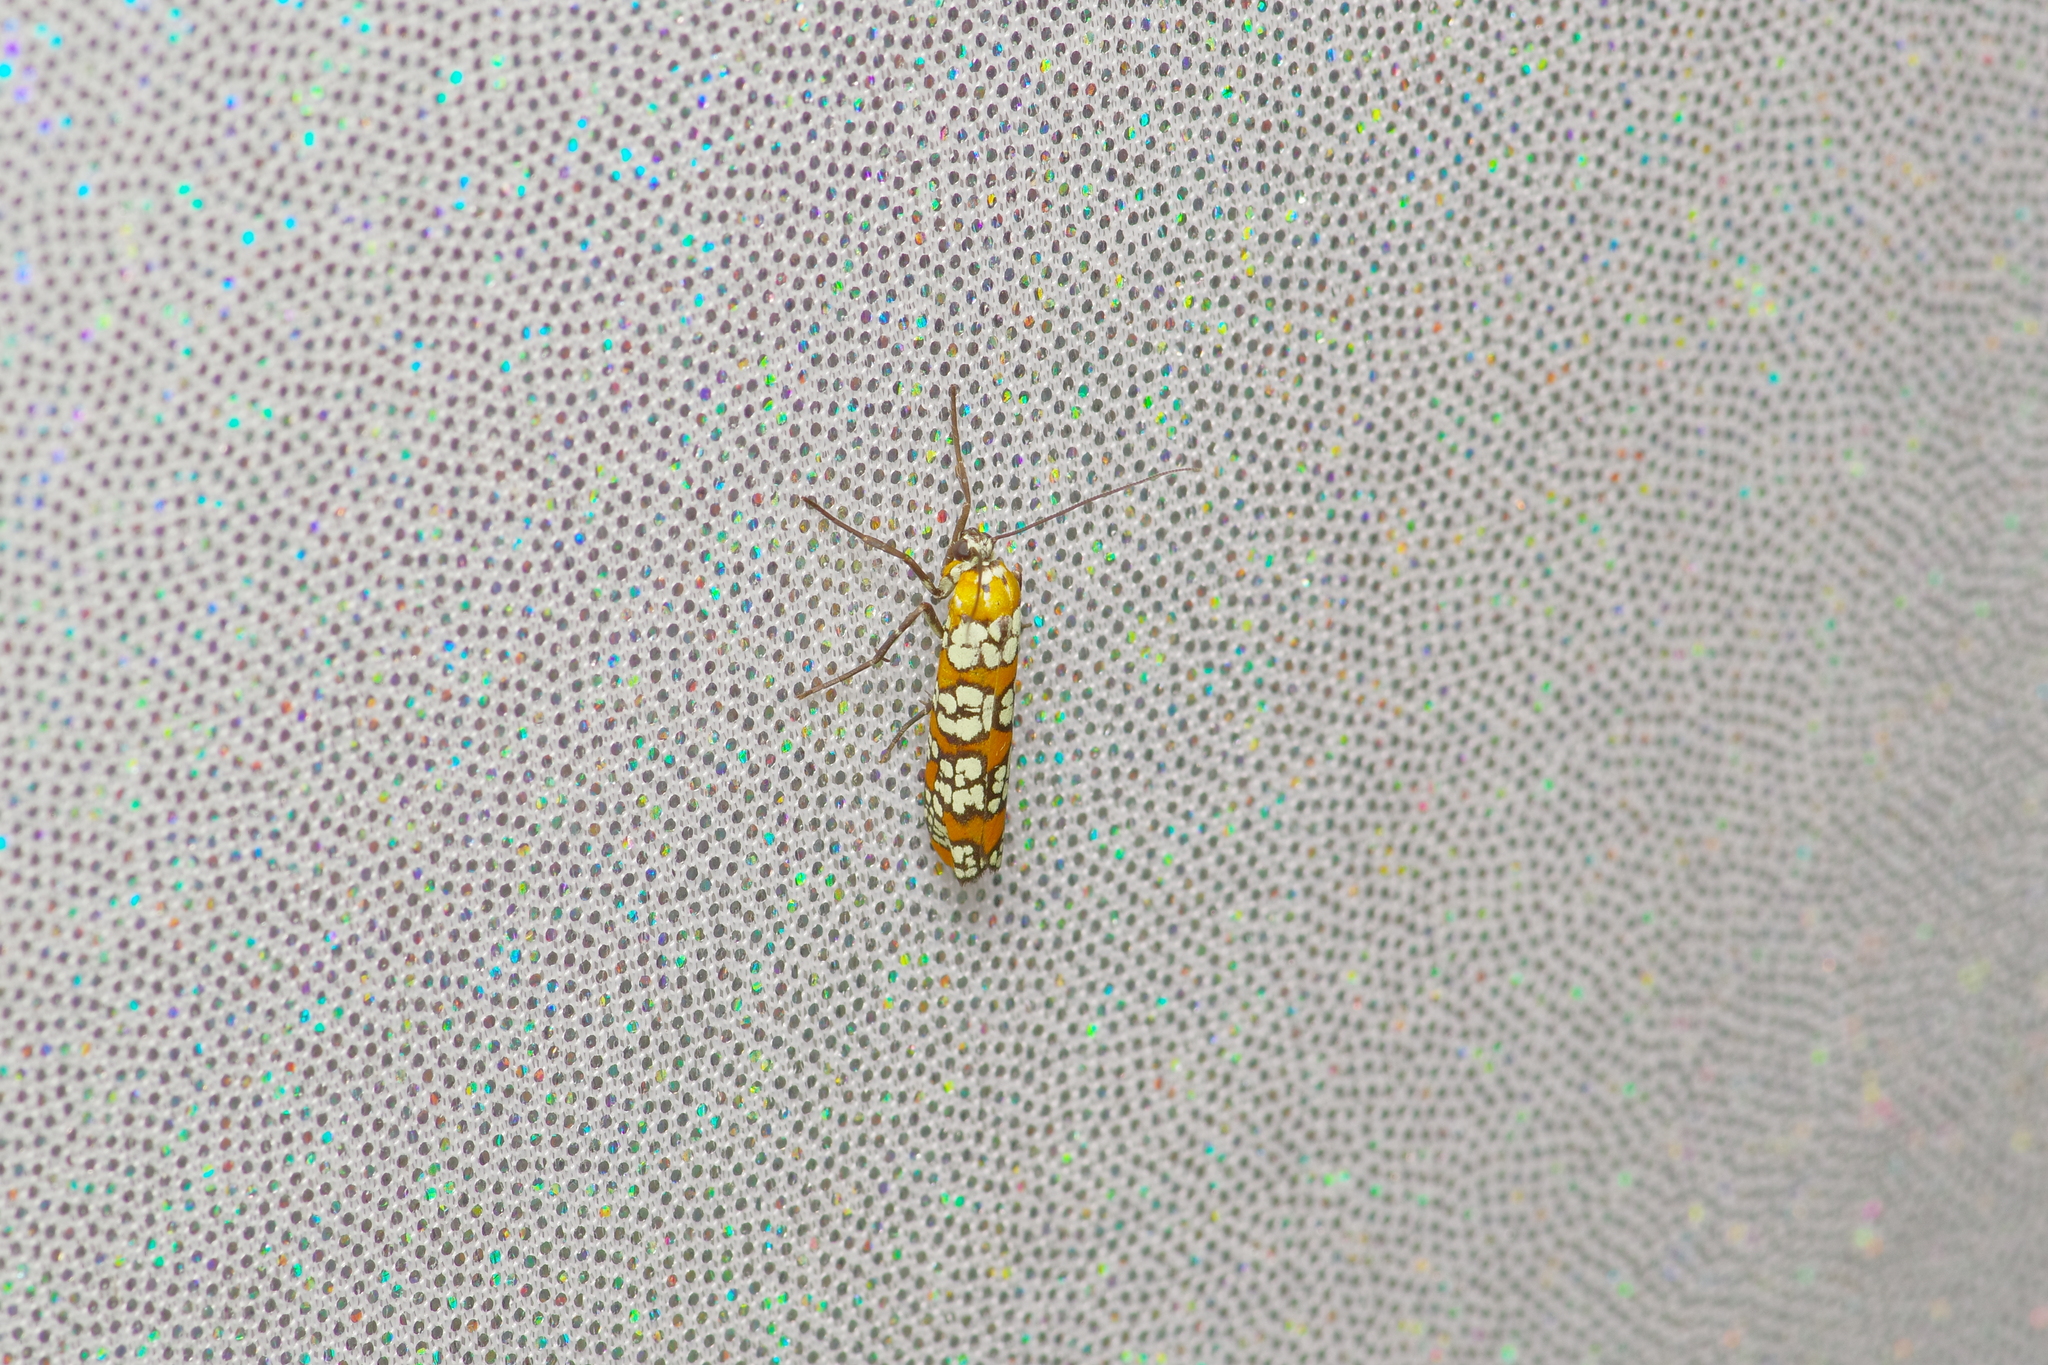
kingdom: Animalia
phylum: Arthropoda
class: Insecta
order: Lepidoptera
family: Attevidae
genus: Atteva
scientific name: Atteva punctella
